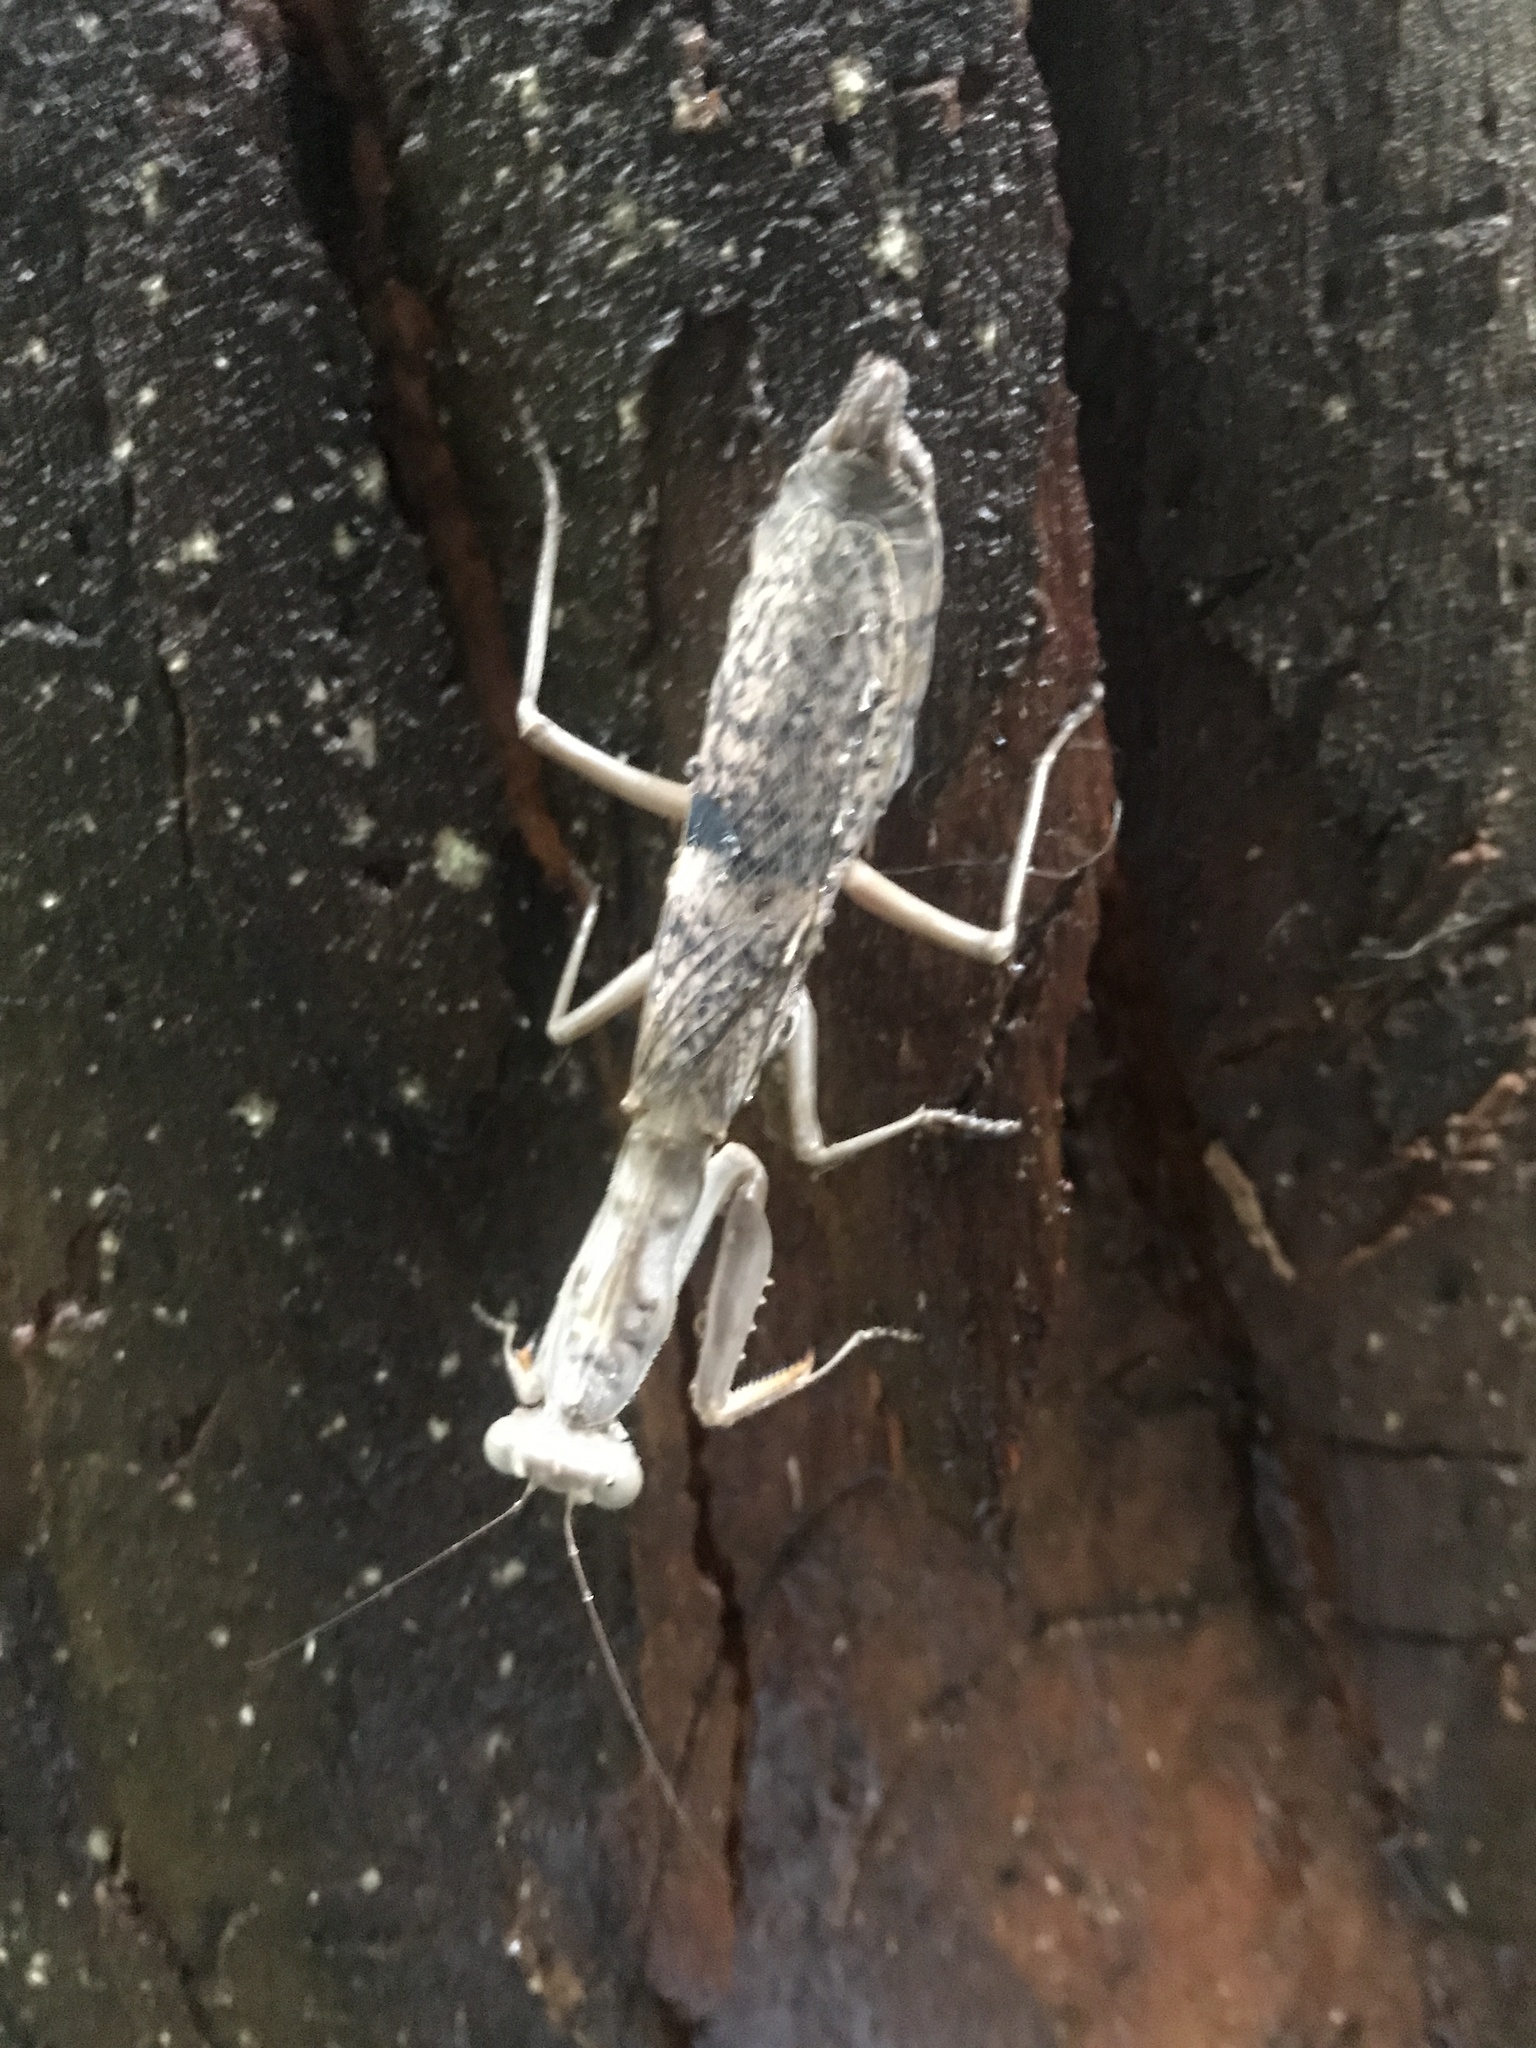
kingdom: Animalia
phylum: Arthropoda
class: Insecta
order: Mantodea
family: Mantidae
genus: Sphodropoda
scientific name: Sphodropoda tristis
